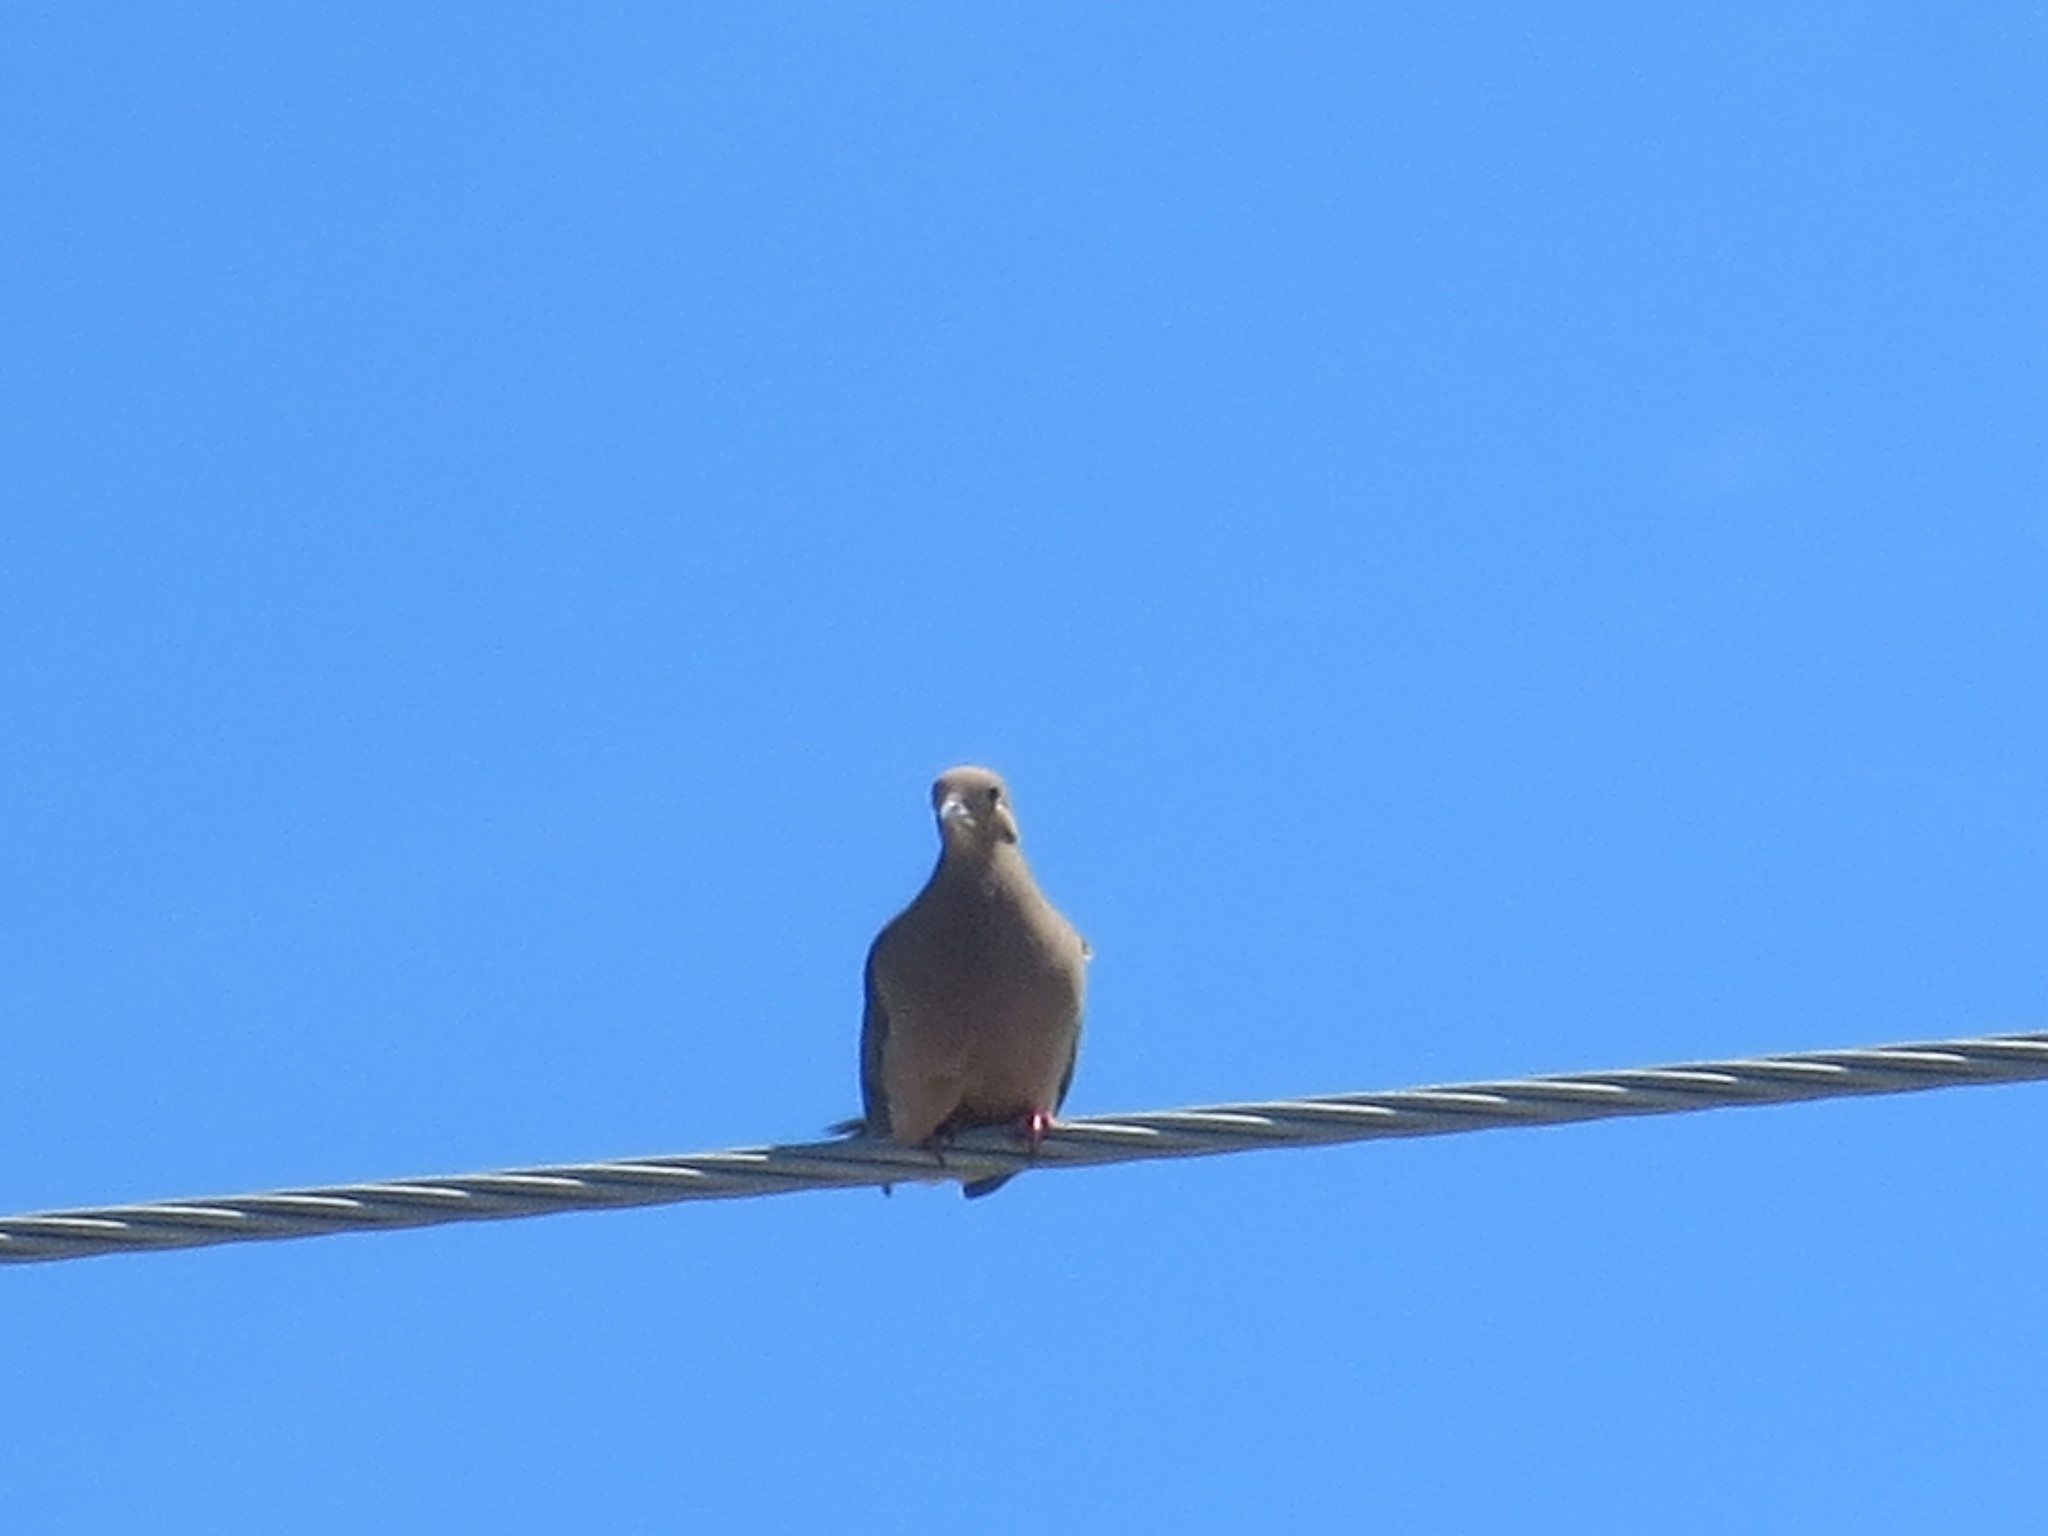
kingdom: Animalia
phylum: Chordata
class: Aves
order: Columbiformes
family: Columbidae
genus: Zenaida
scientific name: Zenaida macroura
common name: Mourning dove
